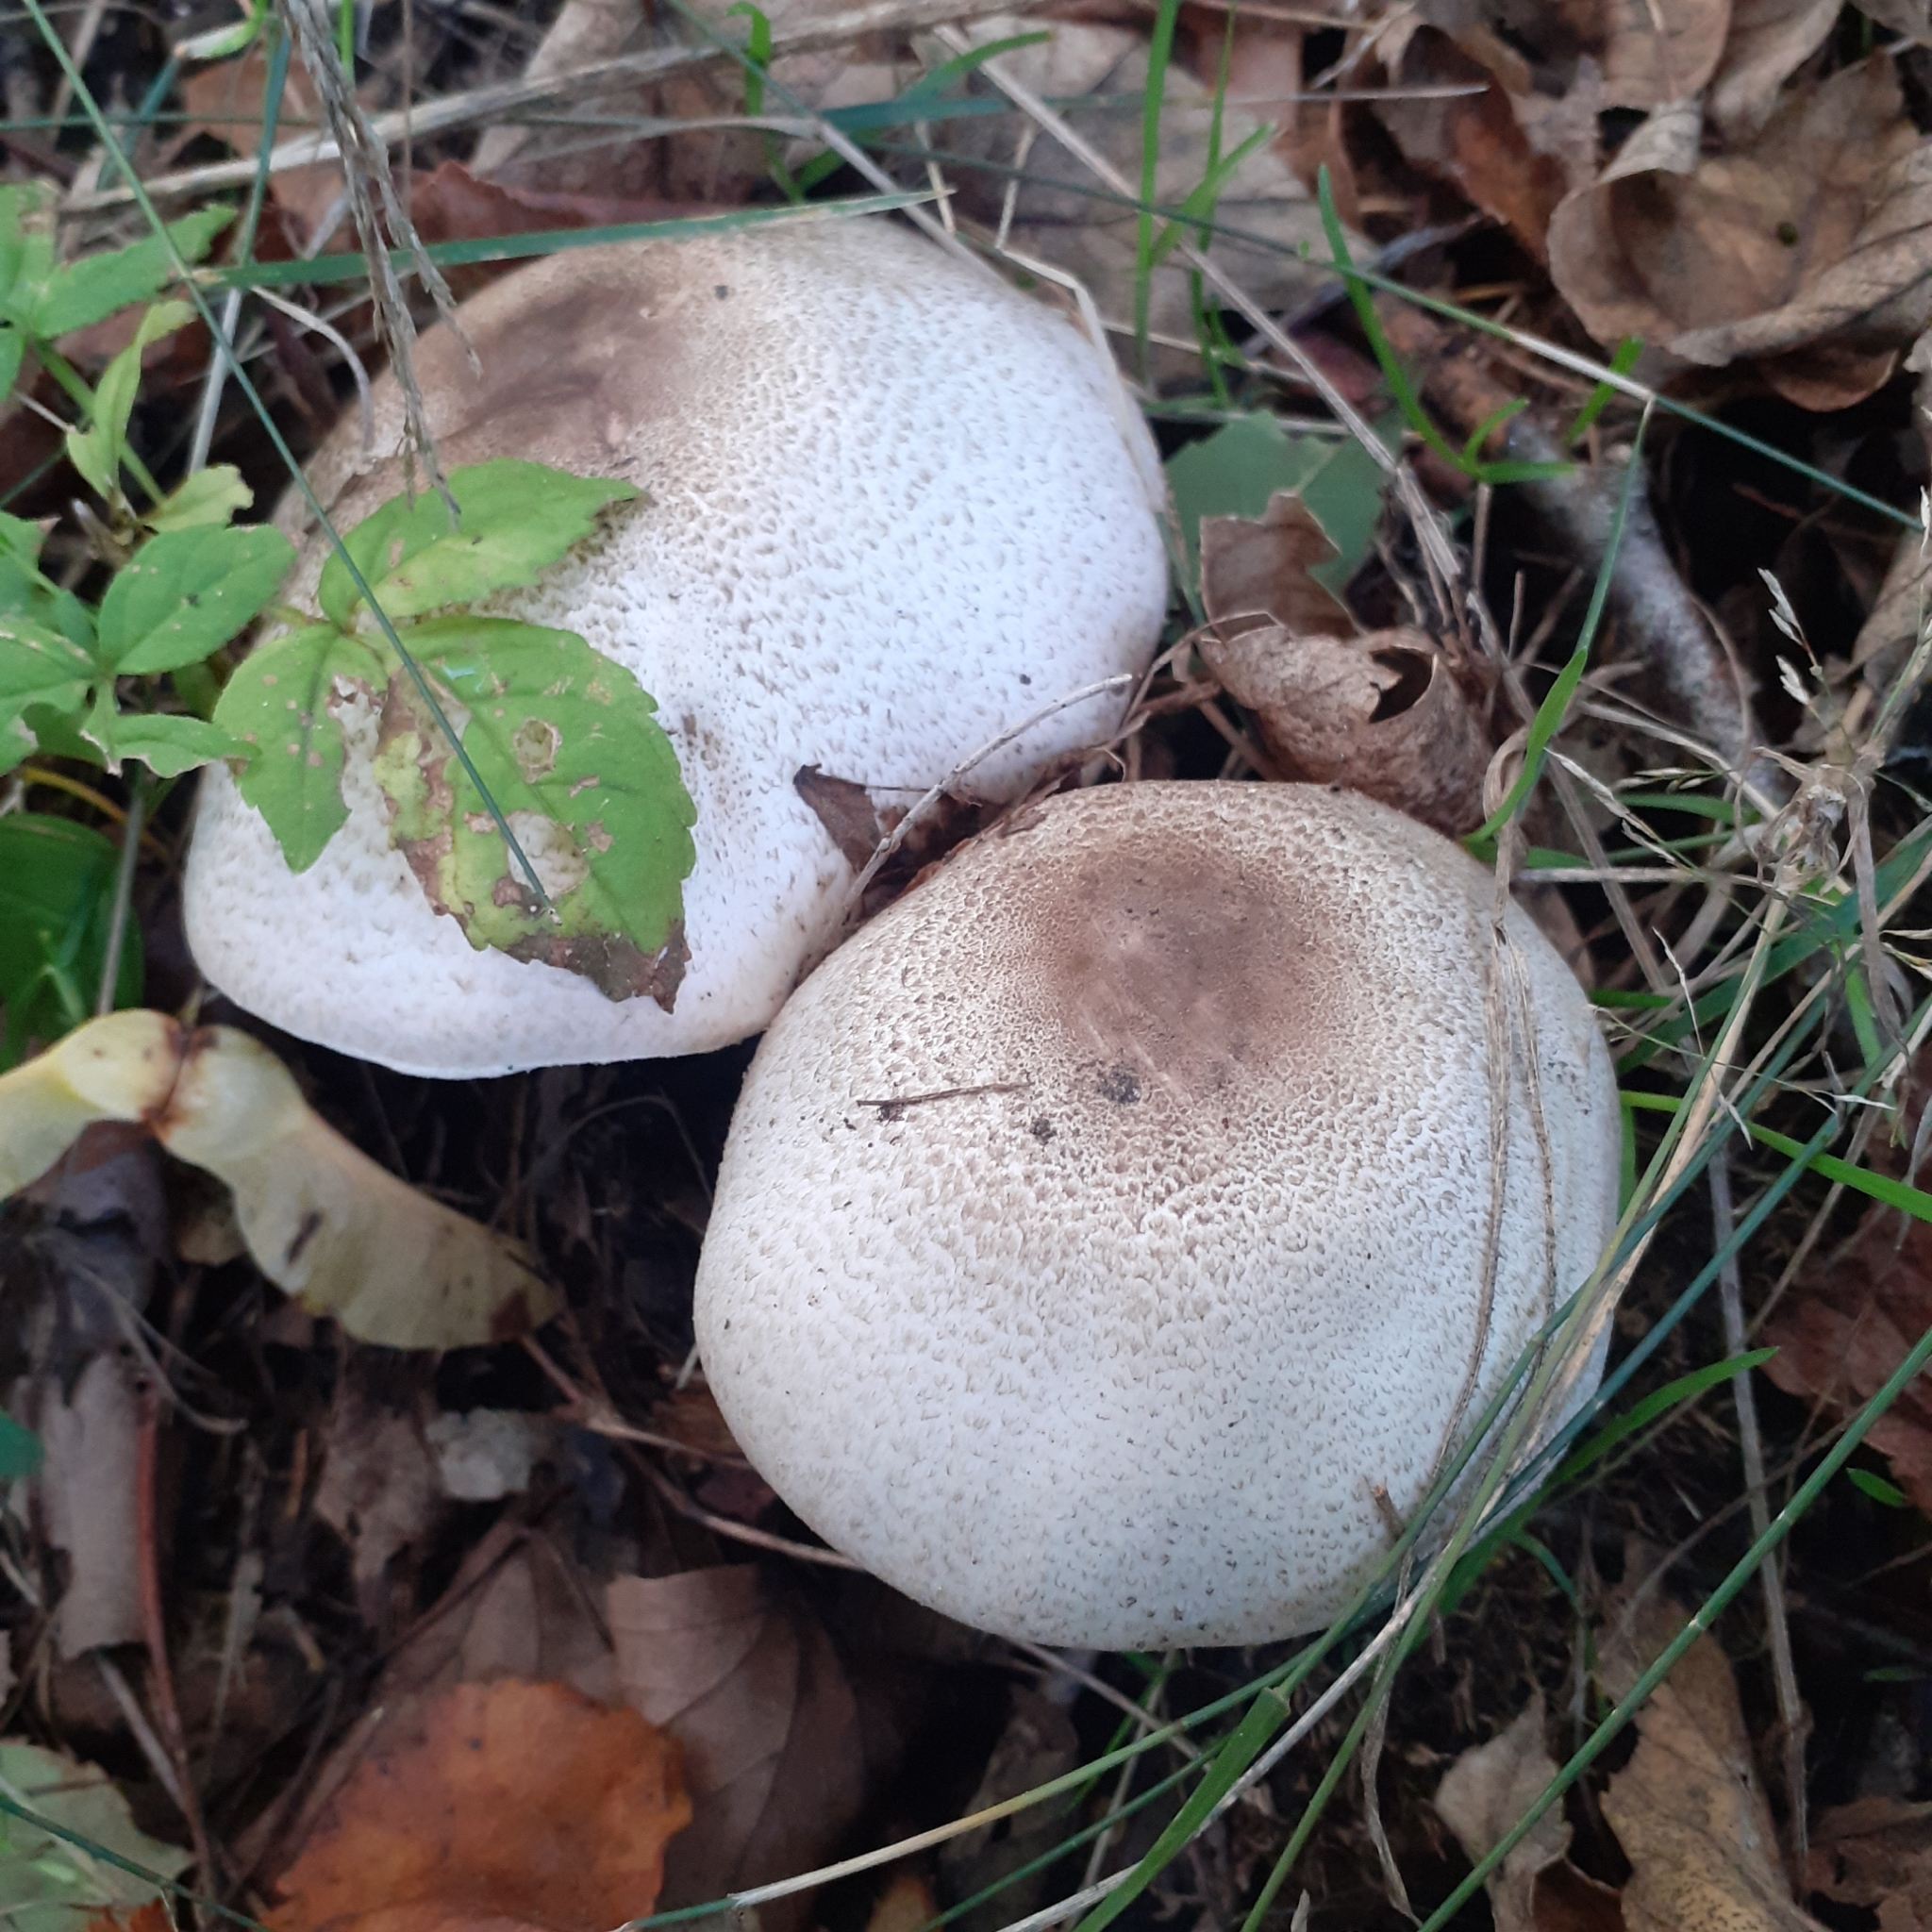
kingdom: Fungi
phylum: Basidiomycota
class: Agaricomycetes
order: Agaricales
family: Agaricaceae
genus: Agaricus
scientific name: Agaricus xanthodermus
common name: Yellow stainer
